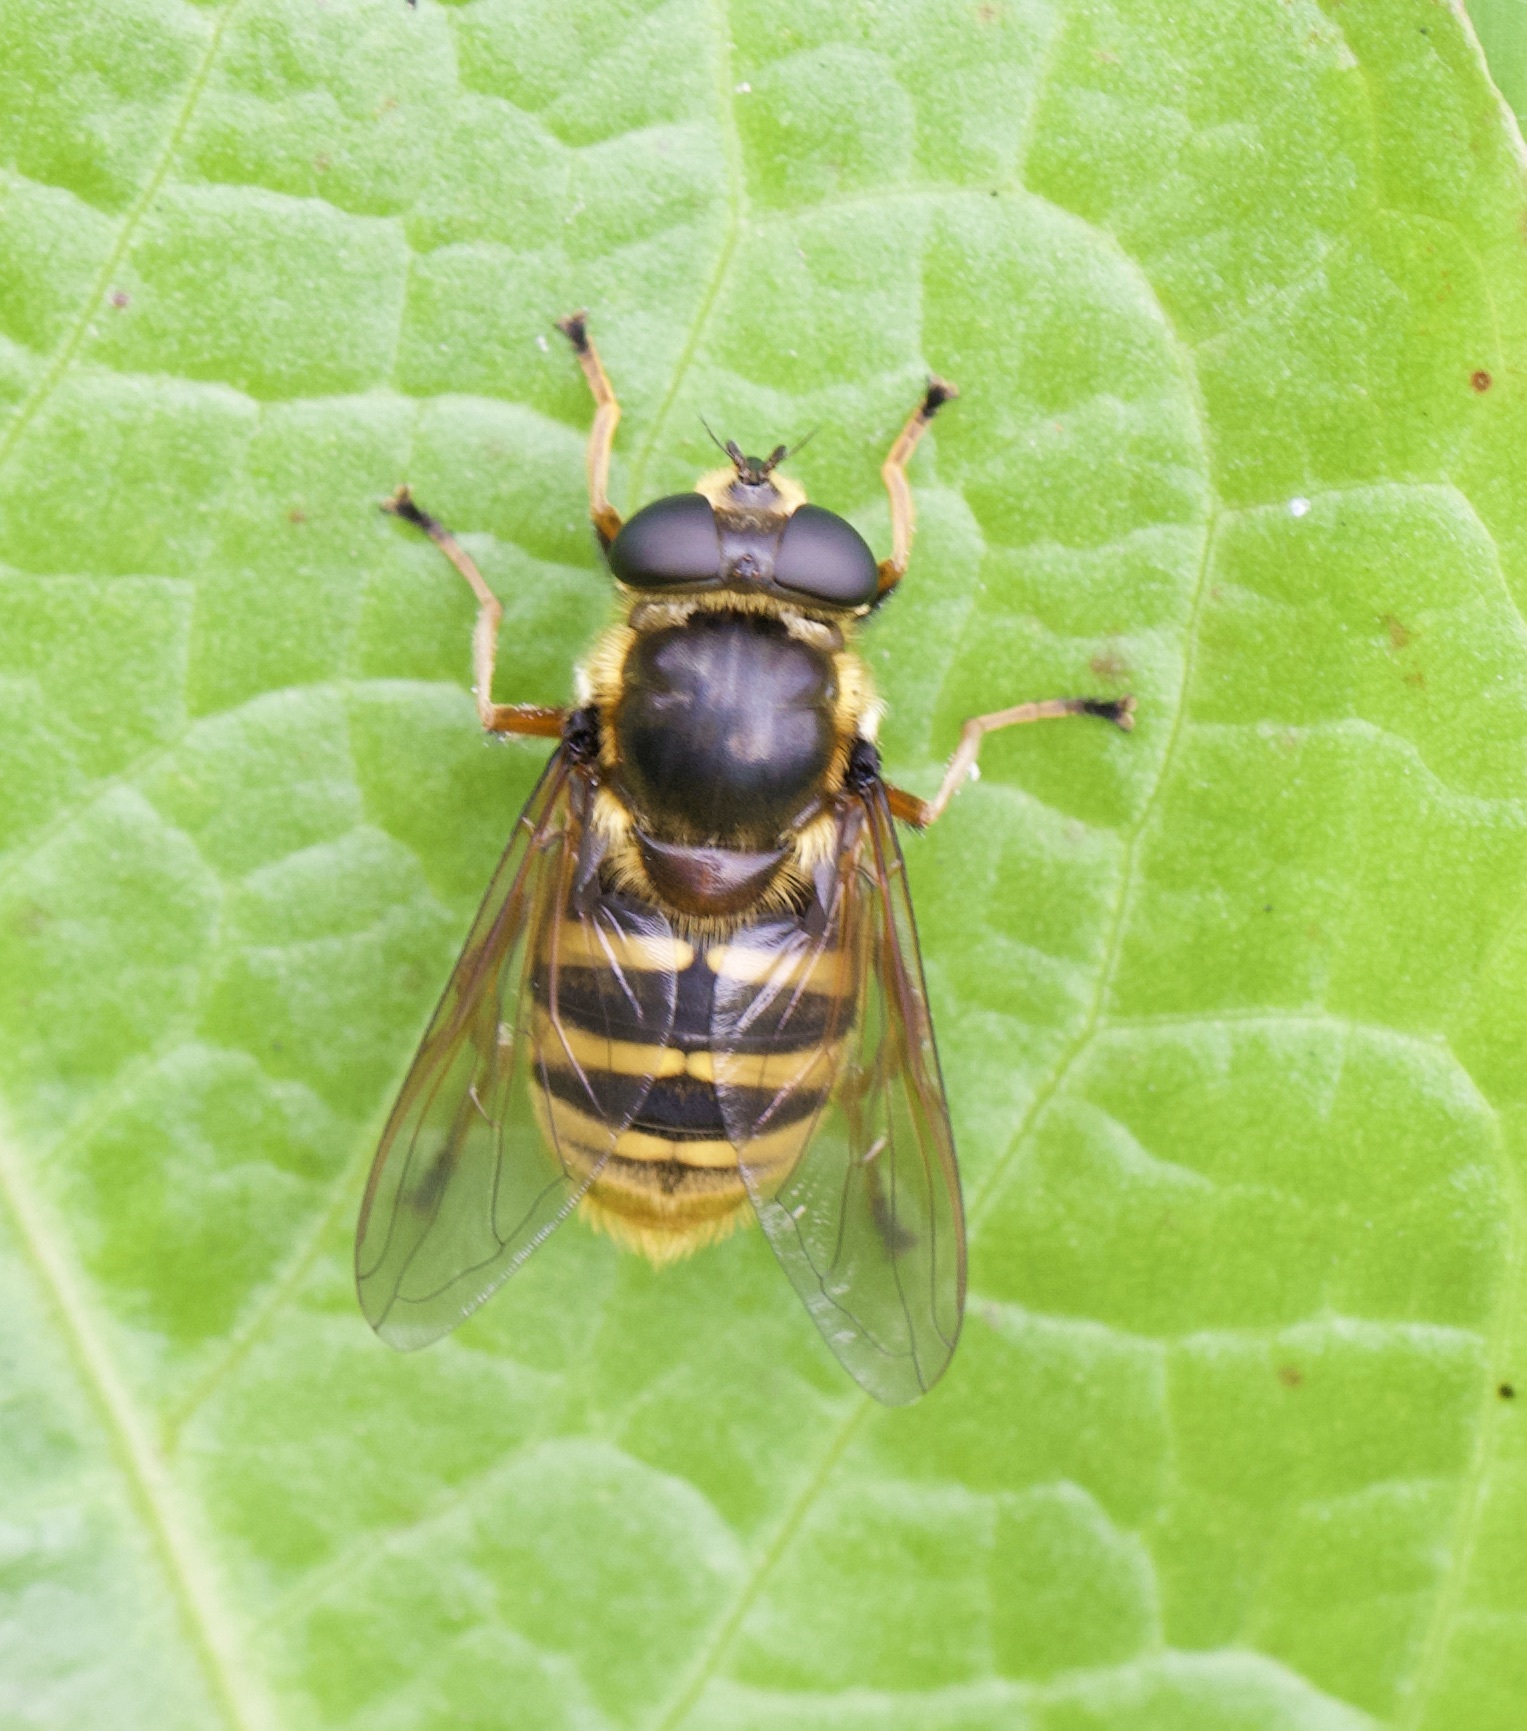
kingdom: Animalia
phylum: Arthropoda
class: Insecta
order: Diptera
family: Syrphidae
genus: Sericomyia
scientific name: Sericomyia silentis
